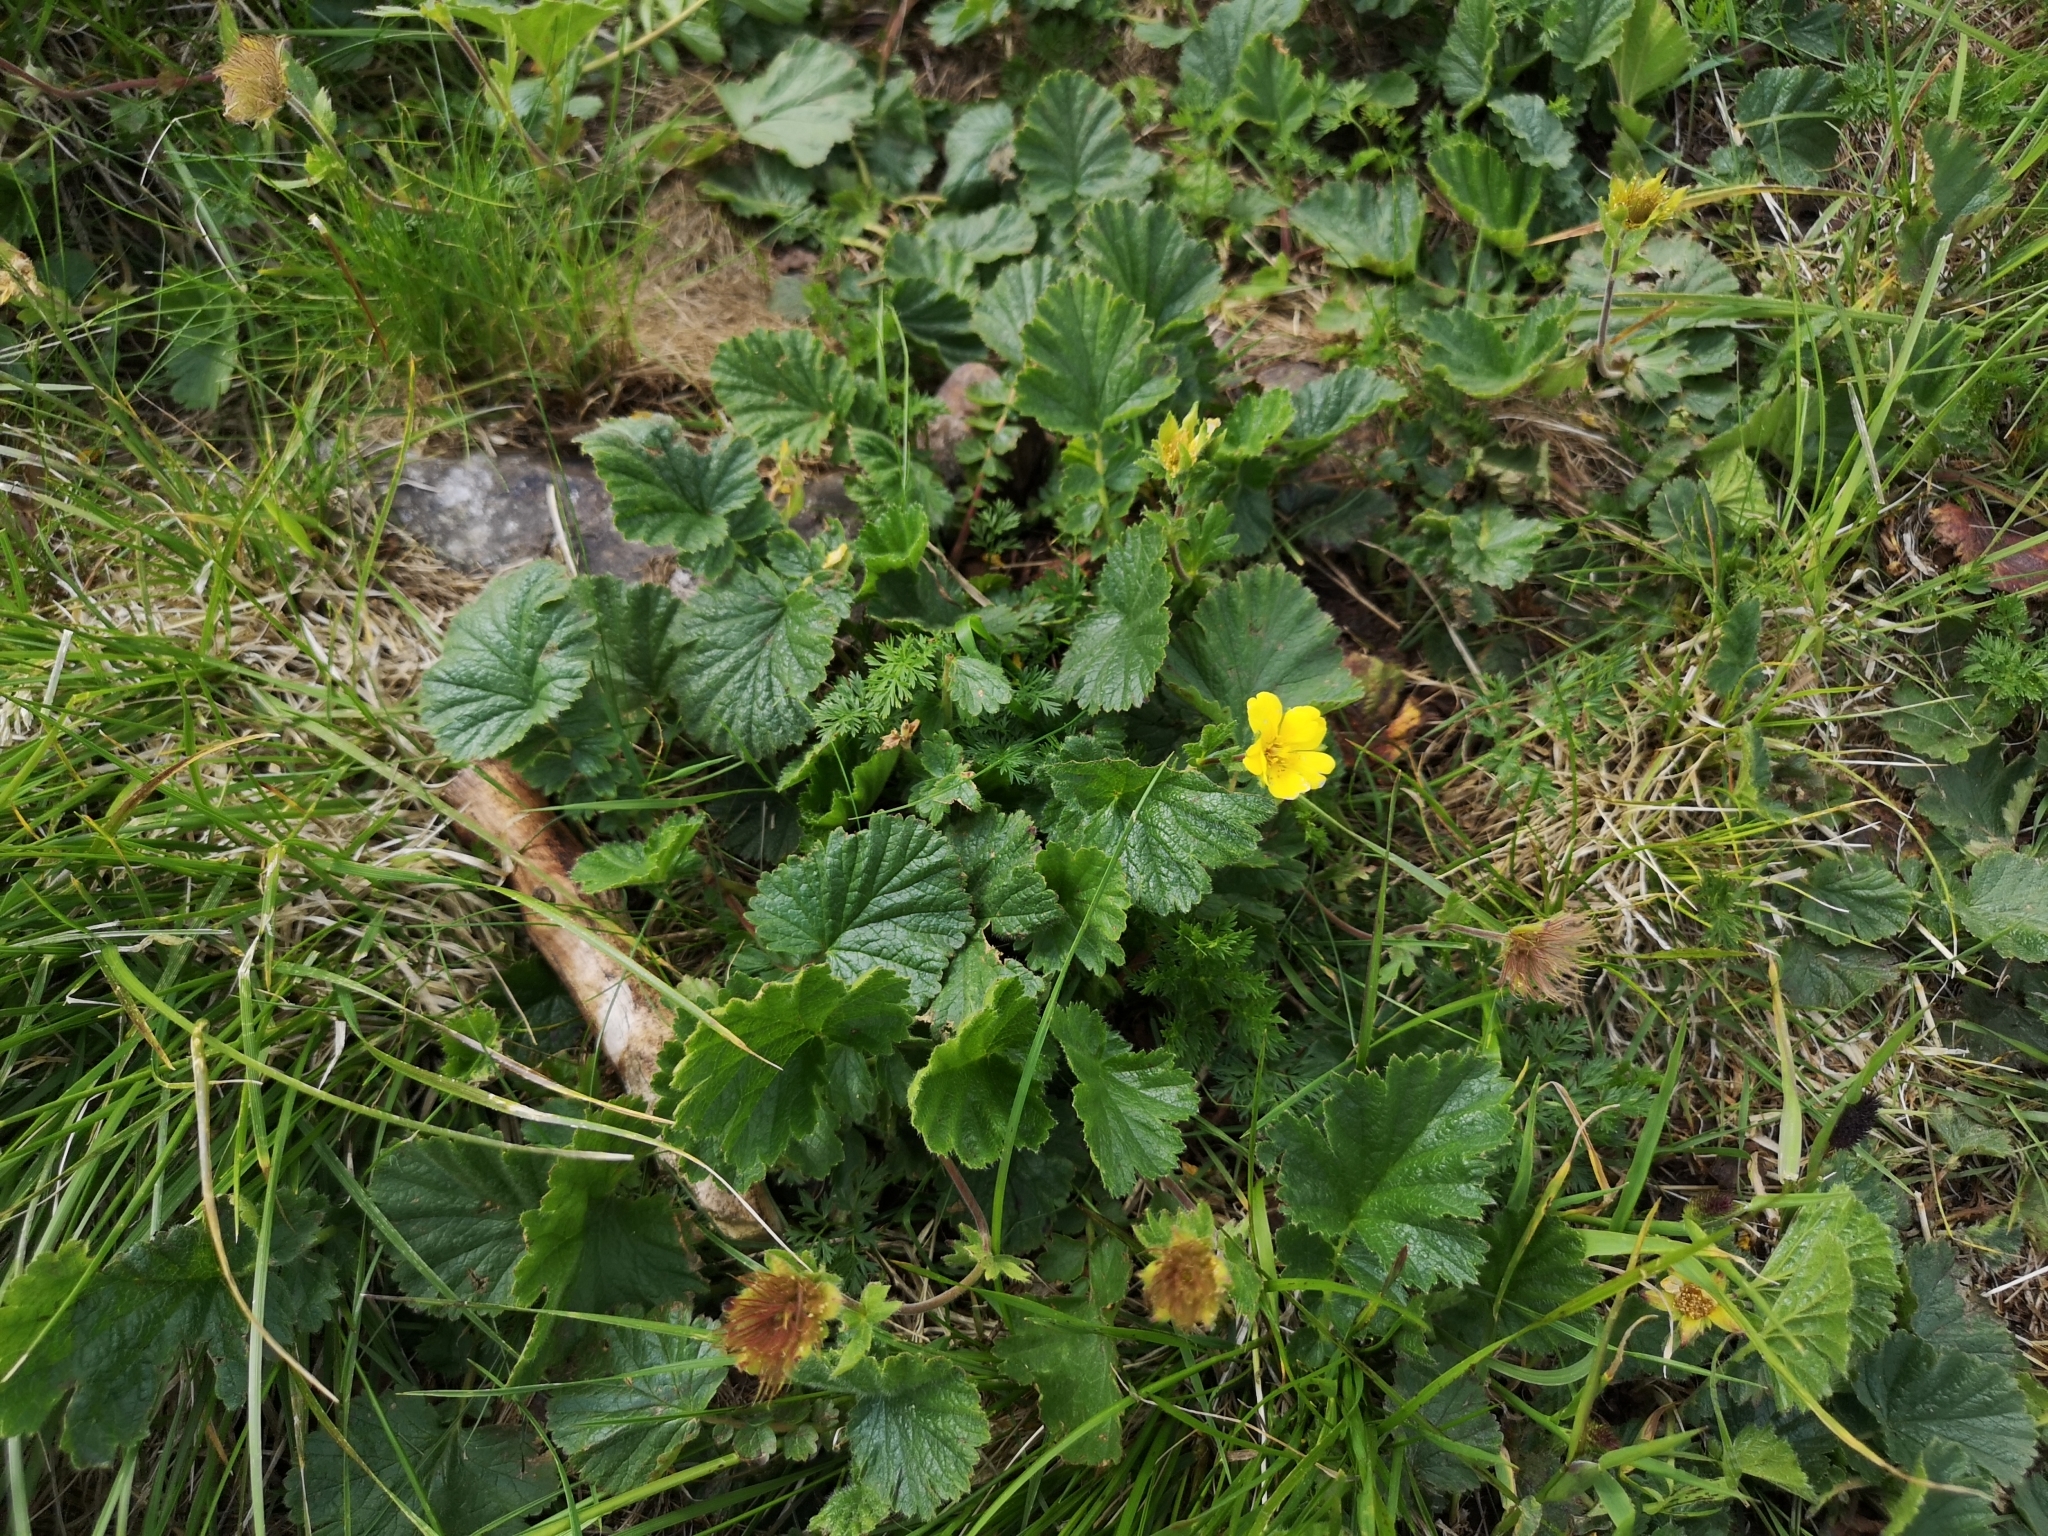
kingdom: Plantae
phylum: Tracheophyta
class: Magnoliopsida
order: Rosales
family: Rosaceae
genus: Geum
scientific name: Geum montanum
